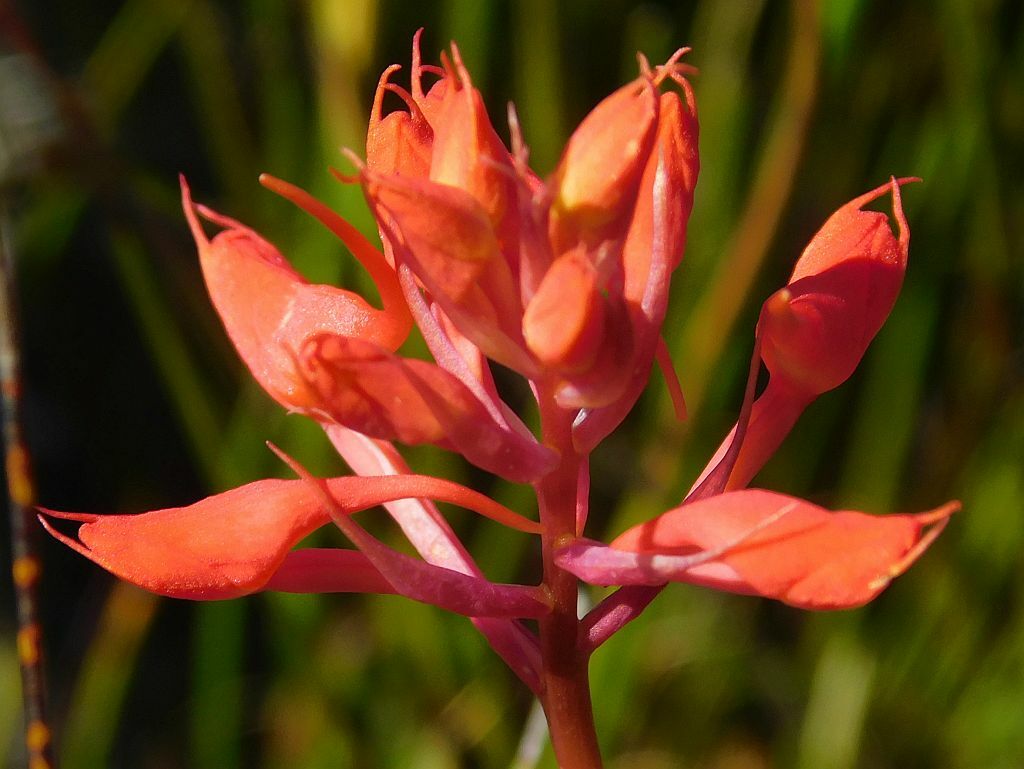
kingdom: Plantae
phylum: Tracheophyta
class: Liliopsida
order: Asparagales
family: Orchidaceae
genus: Disa
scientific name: Disa ferruginea
